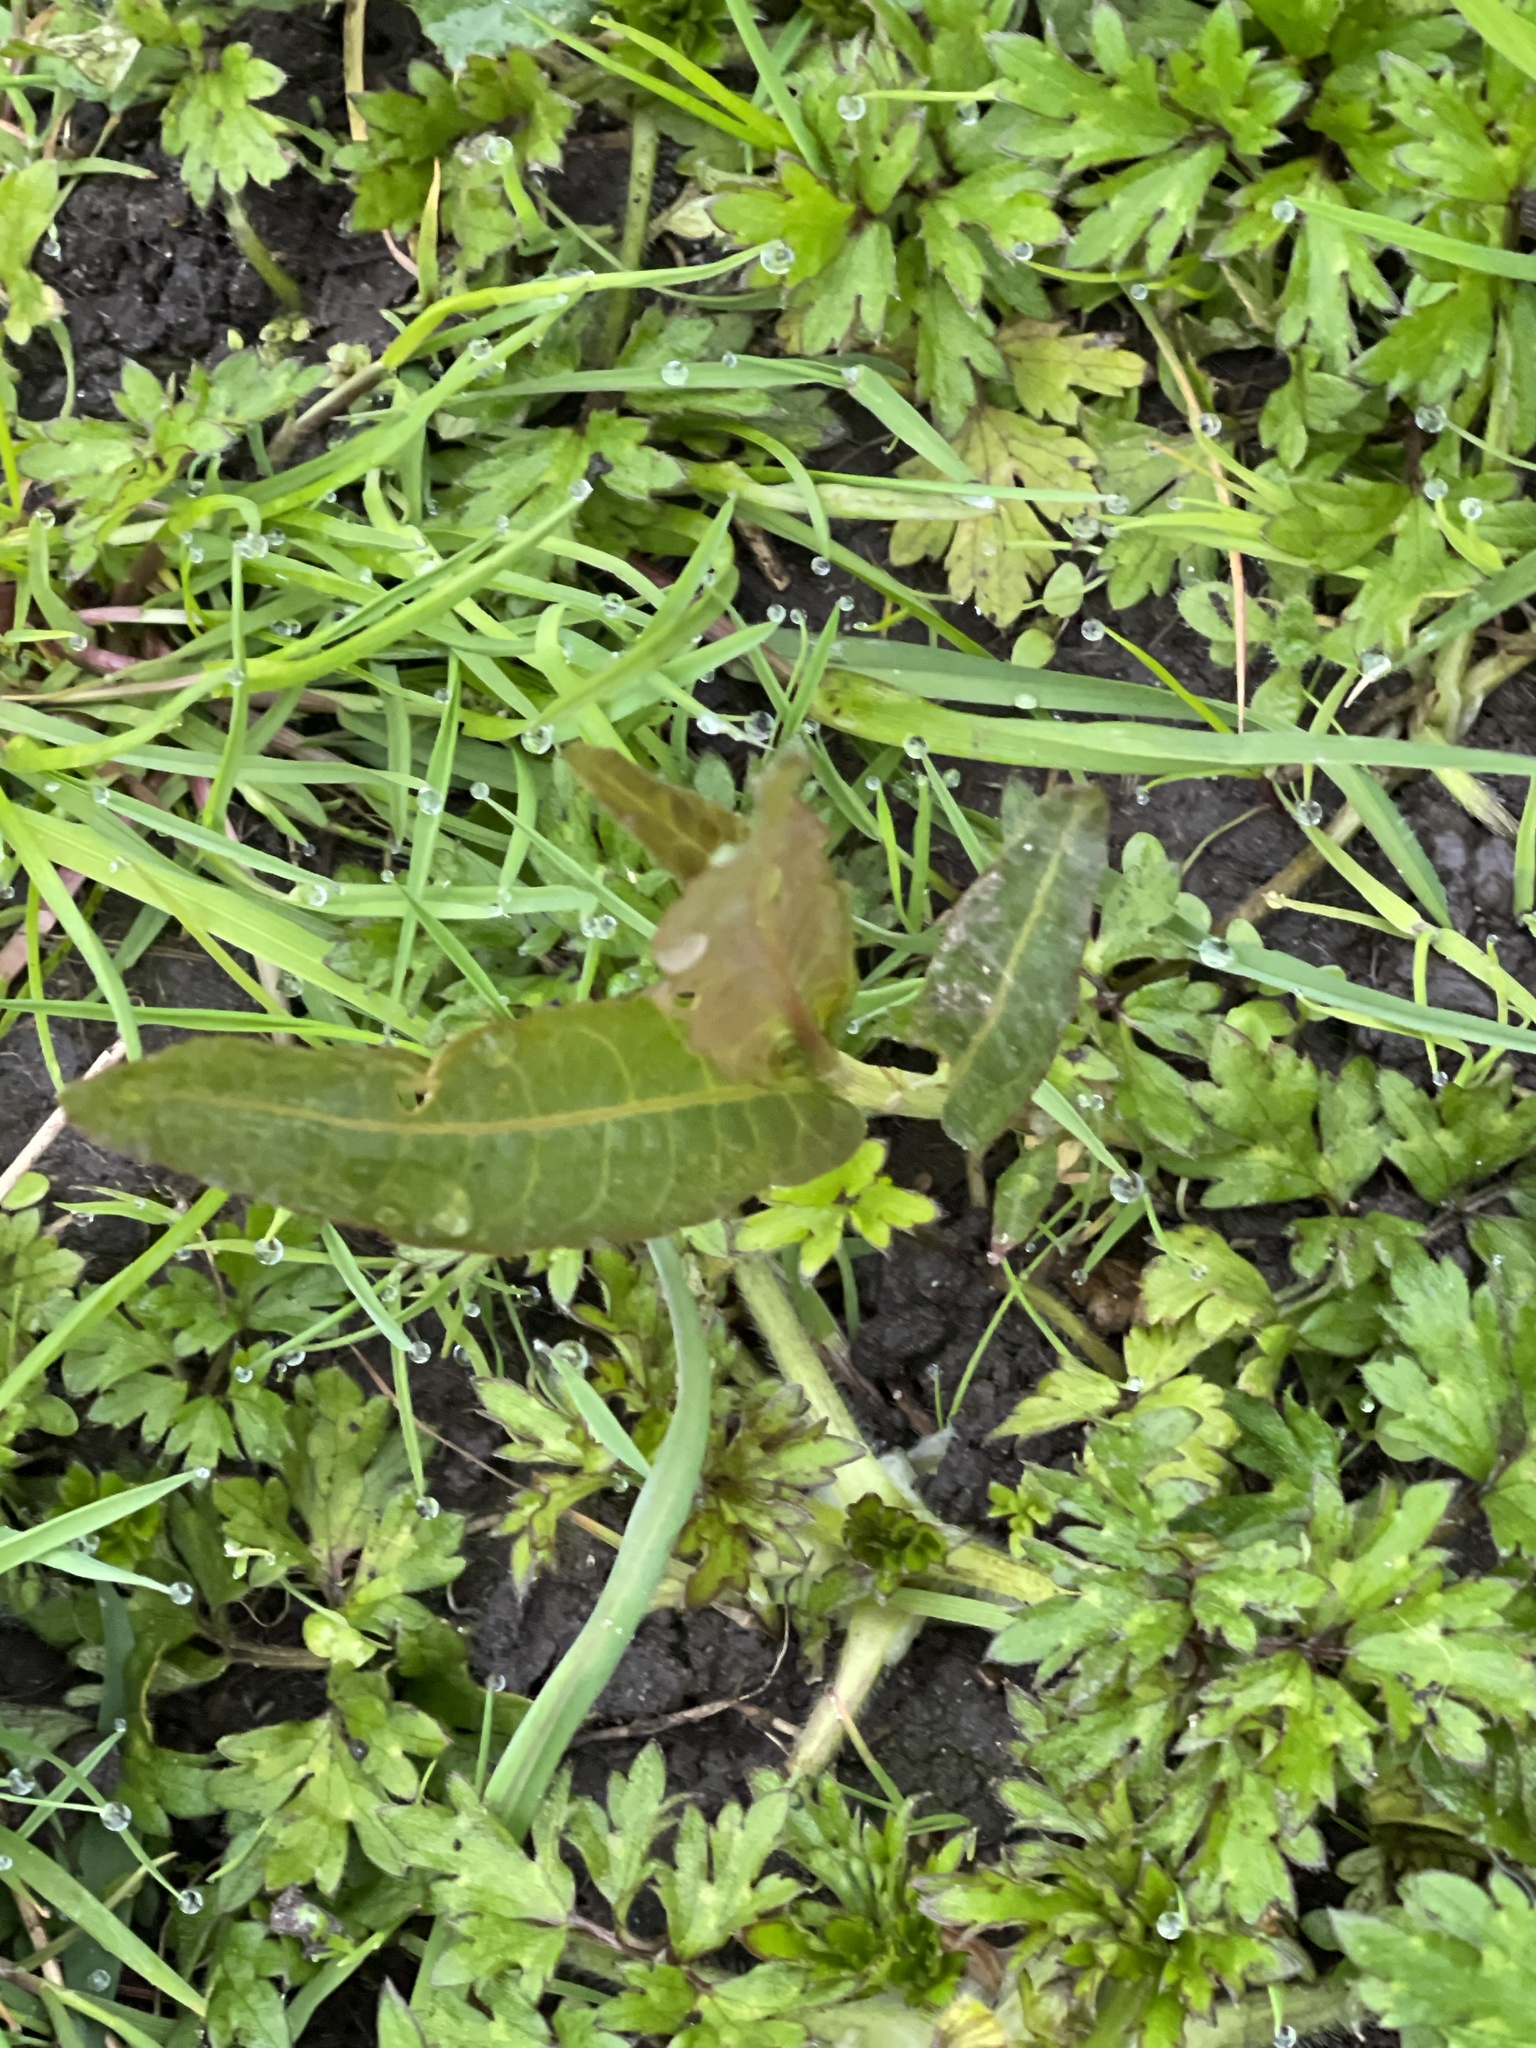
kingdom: Plantae
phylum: Tracheophyta
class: Magnoliopsida
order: Caryophyllales
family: Polygonaceae
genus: Persicaria
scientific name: Persicaria amphibia
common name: Amphibious bistort
